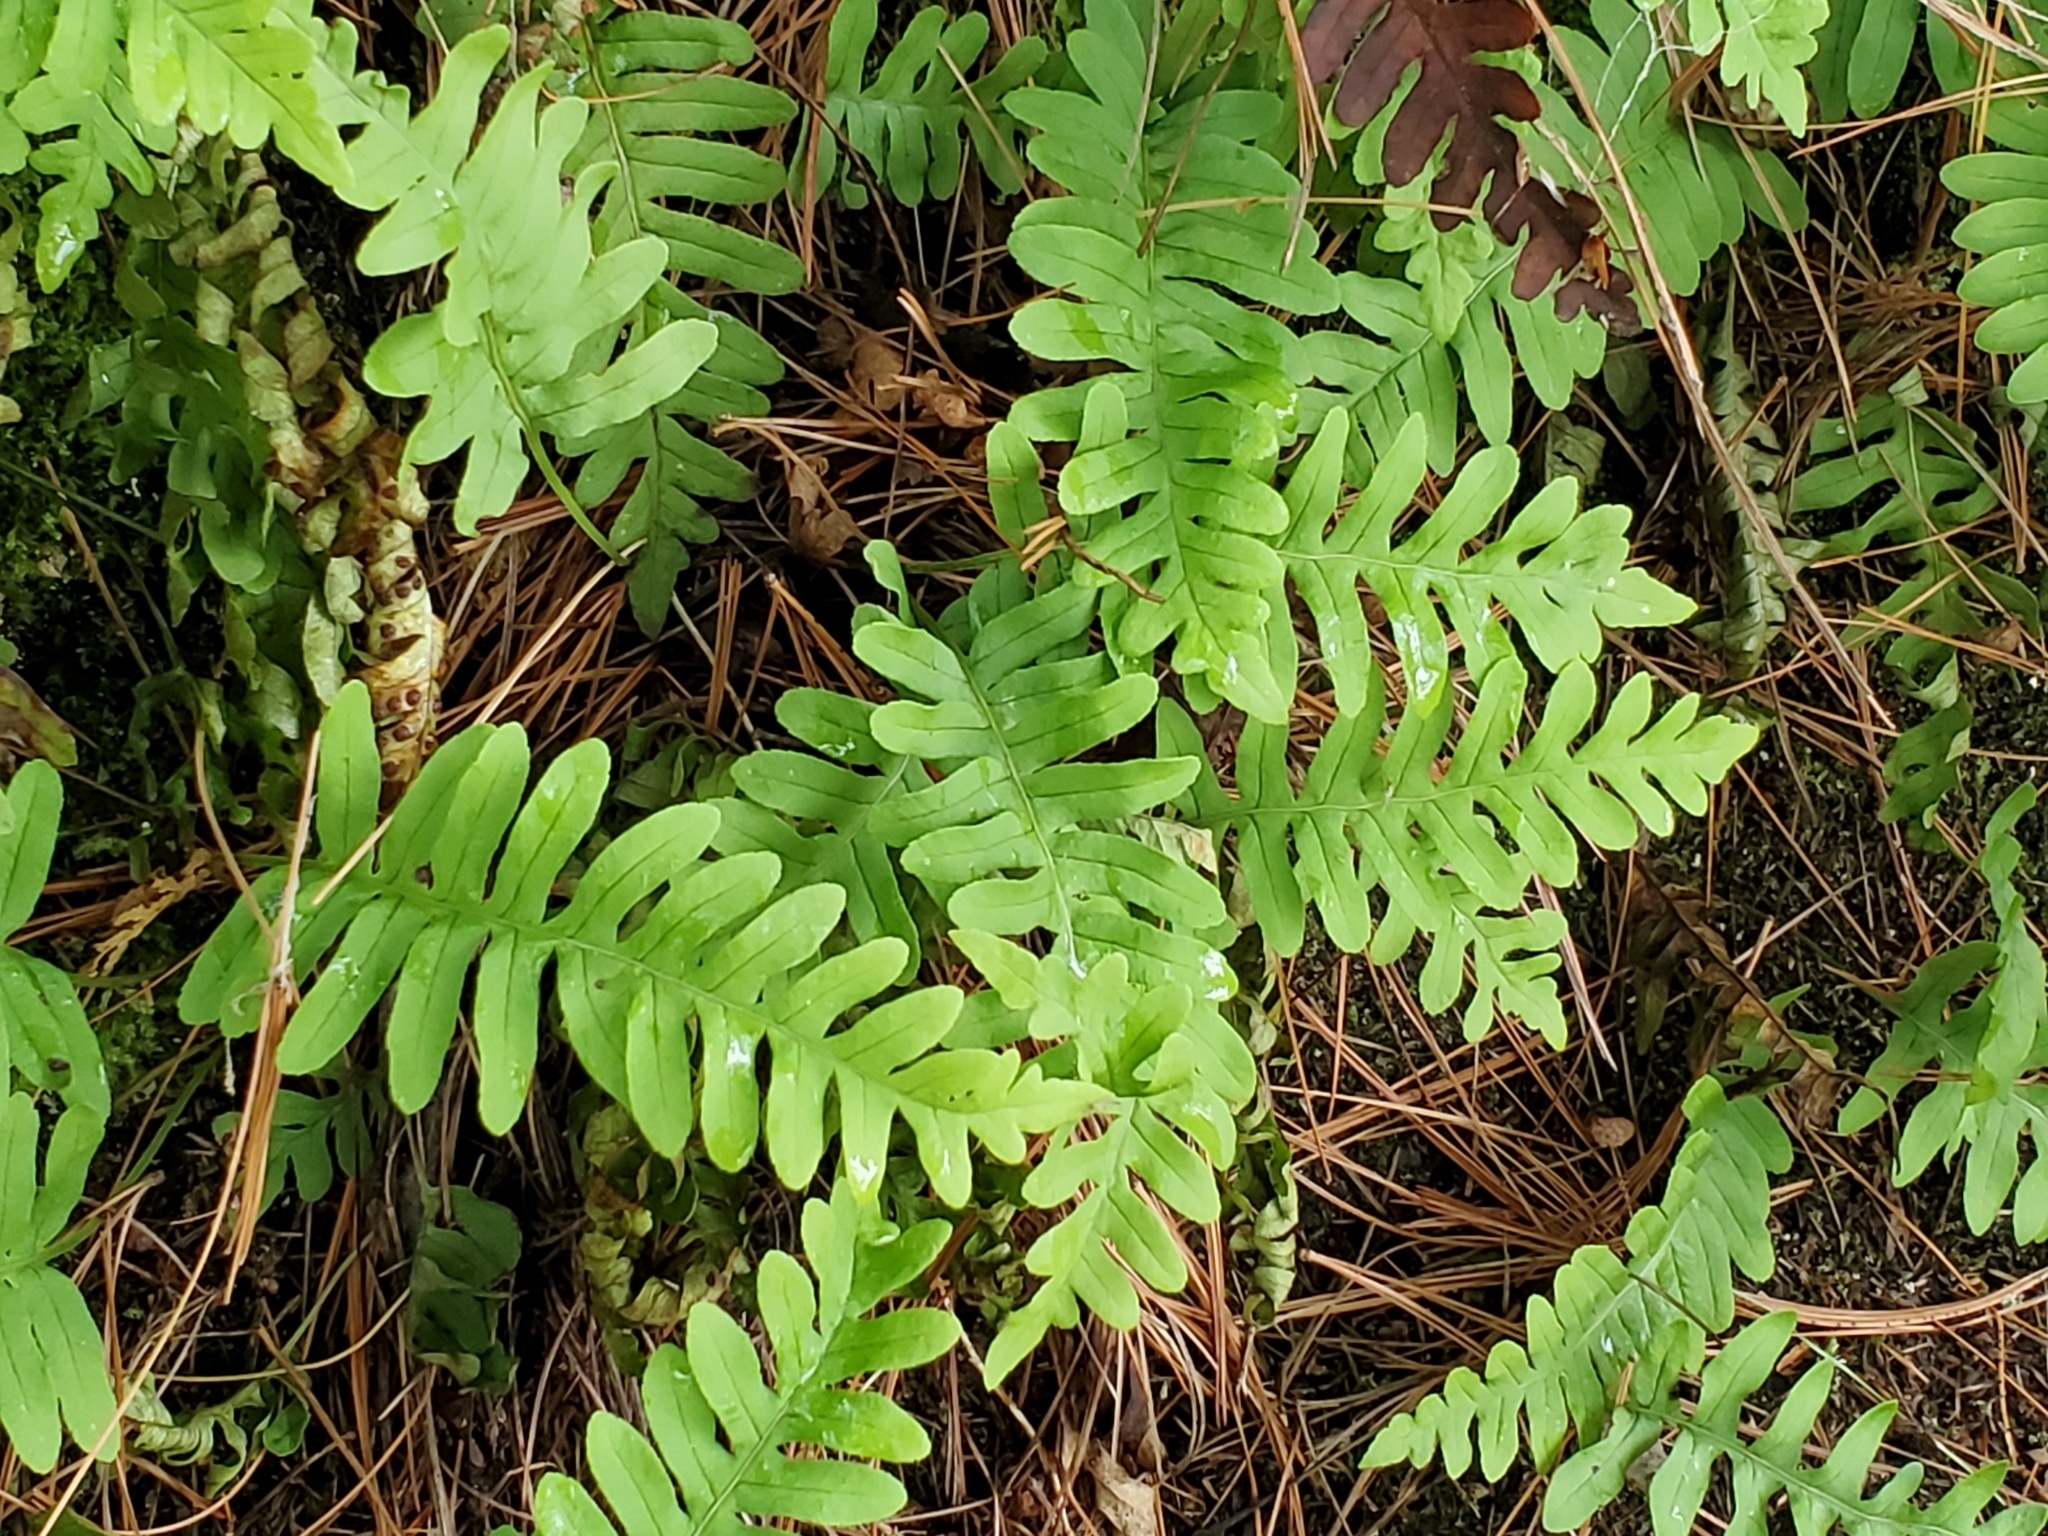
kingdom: Plantae
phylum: Tracheophyta
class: Polypodiopsida
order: Polypodiales
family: Polypodiaceae
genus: Polypodium
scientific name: Polypodium virginianum
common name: American wall fern
